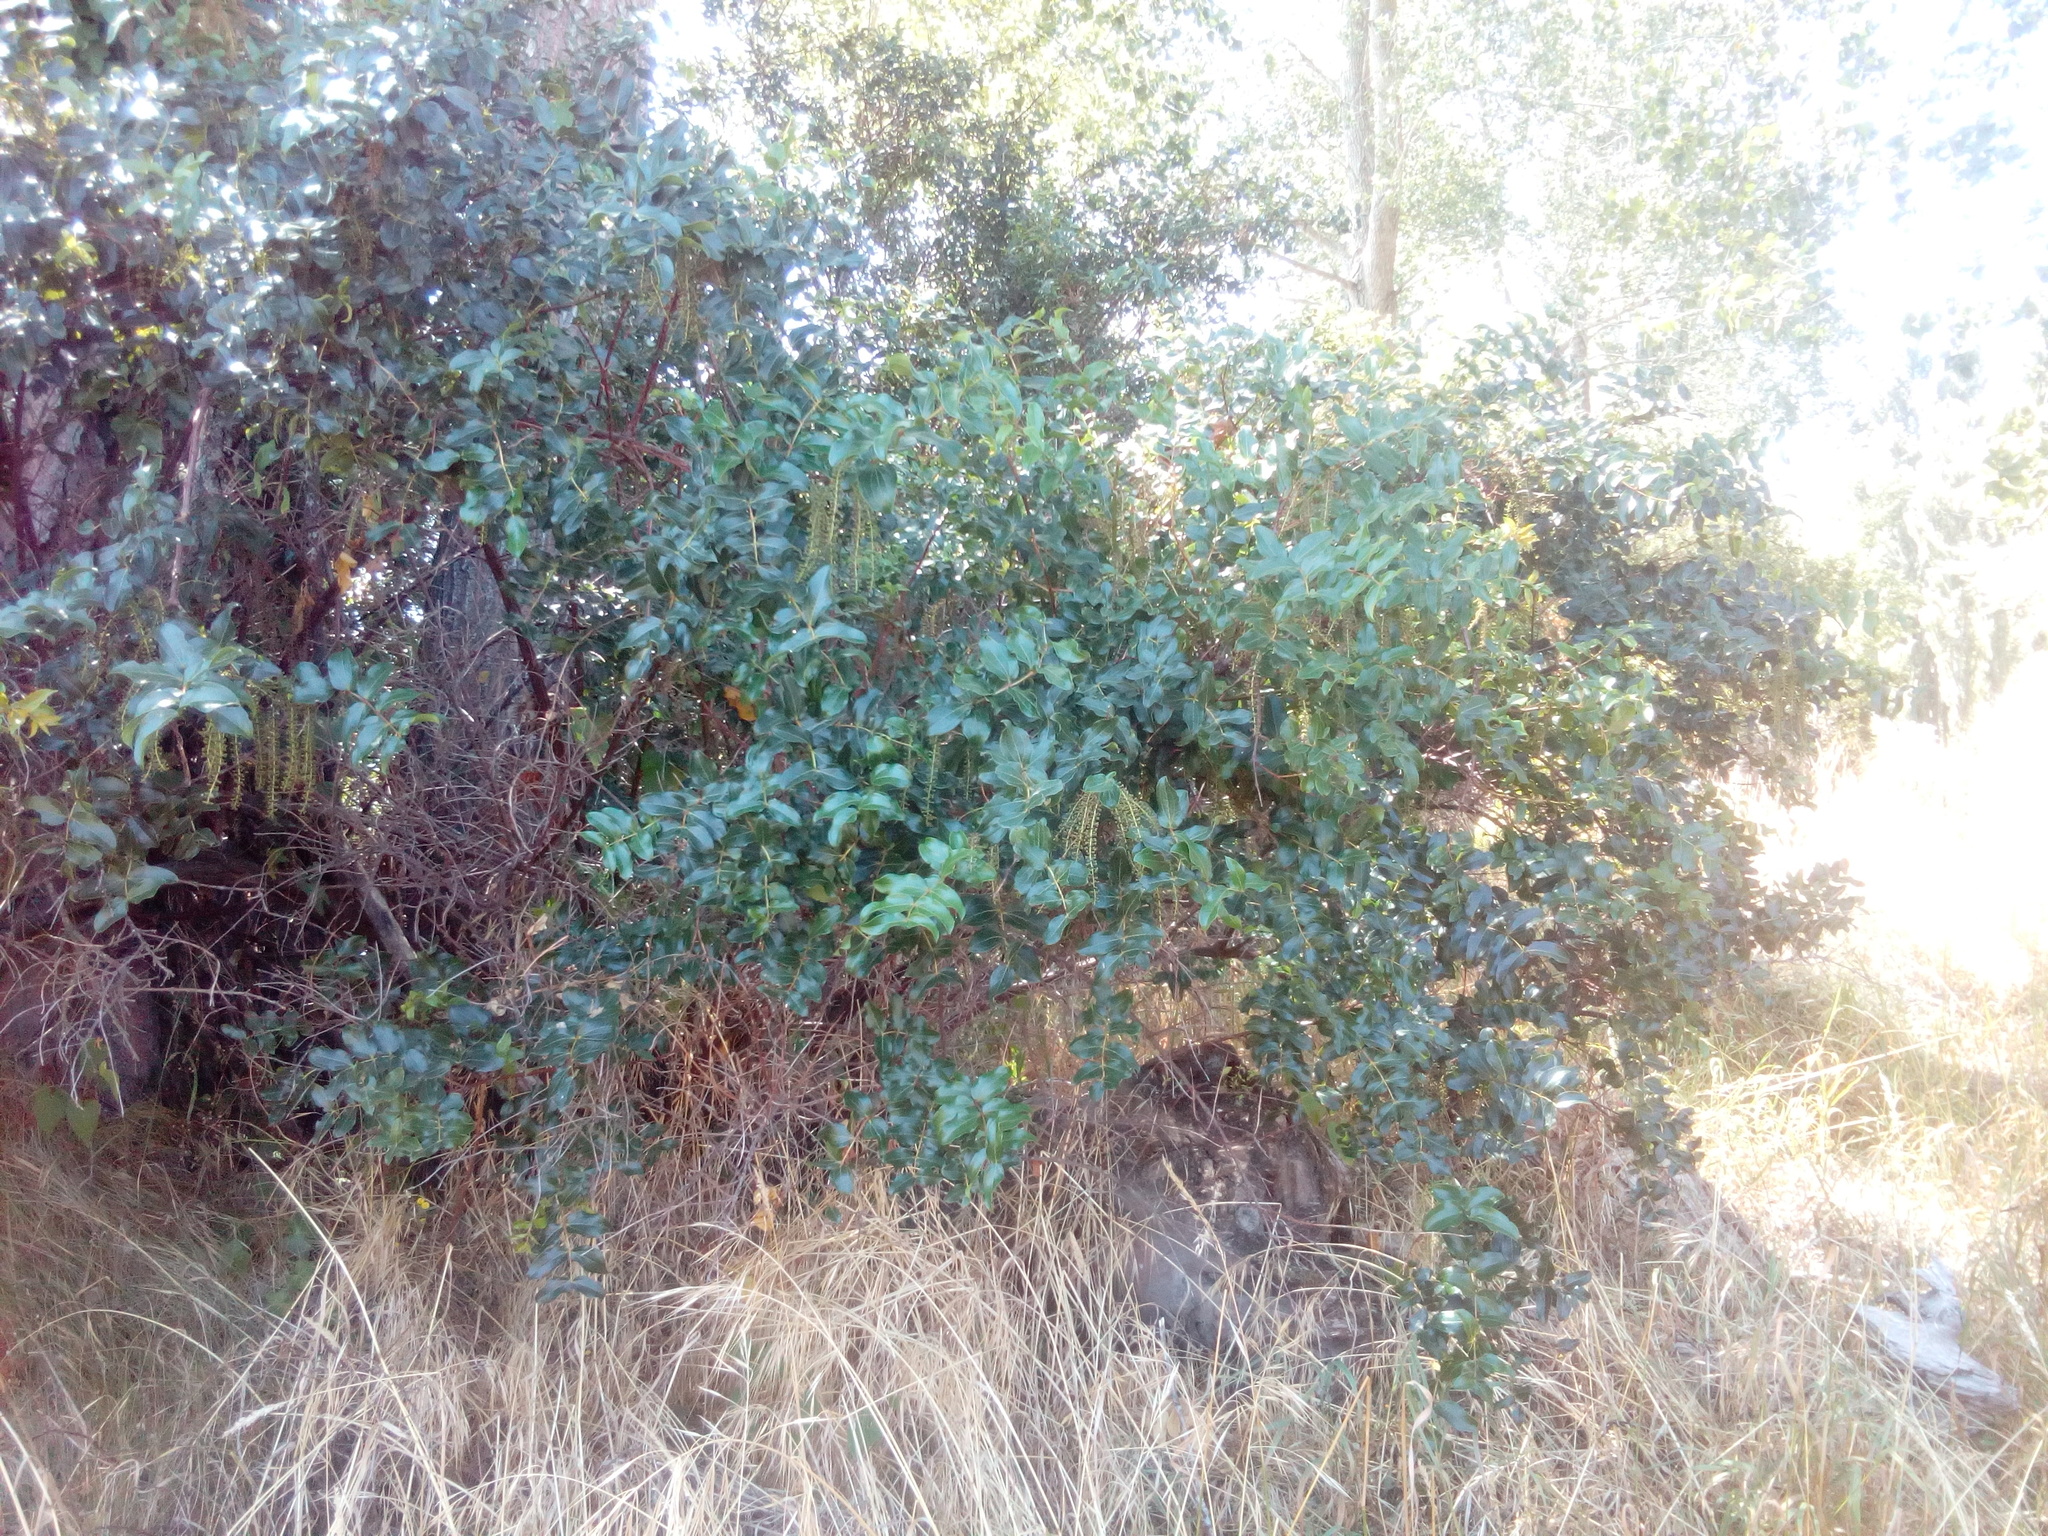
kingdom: Plantae
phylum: Tracheophyta
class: Magnoliopsida
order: Cucurbitales
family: Coriariaceae
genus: Coriaria
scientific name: Coriaria arborea
